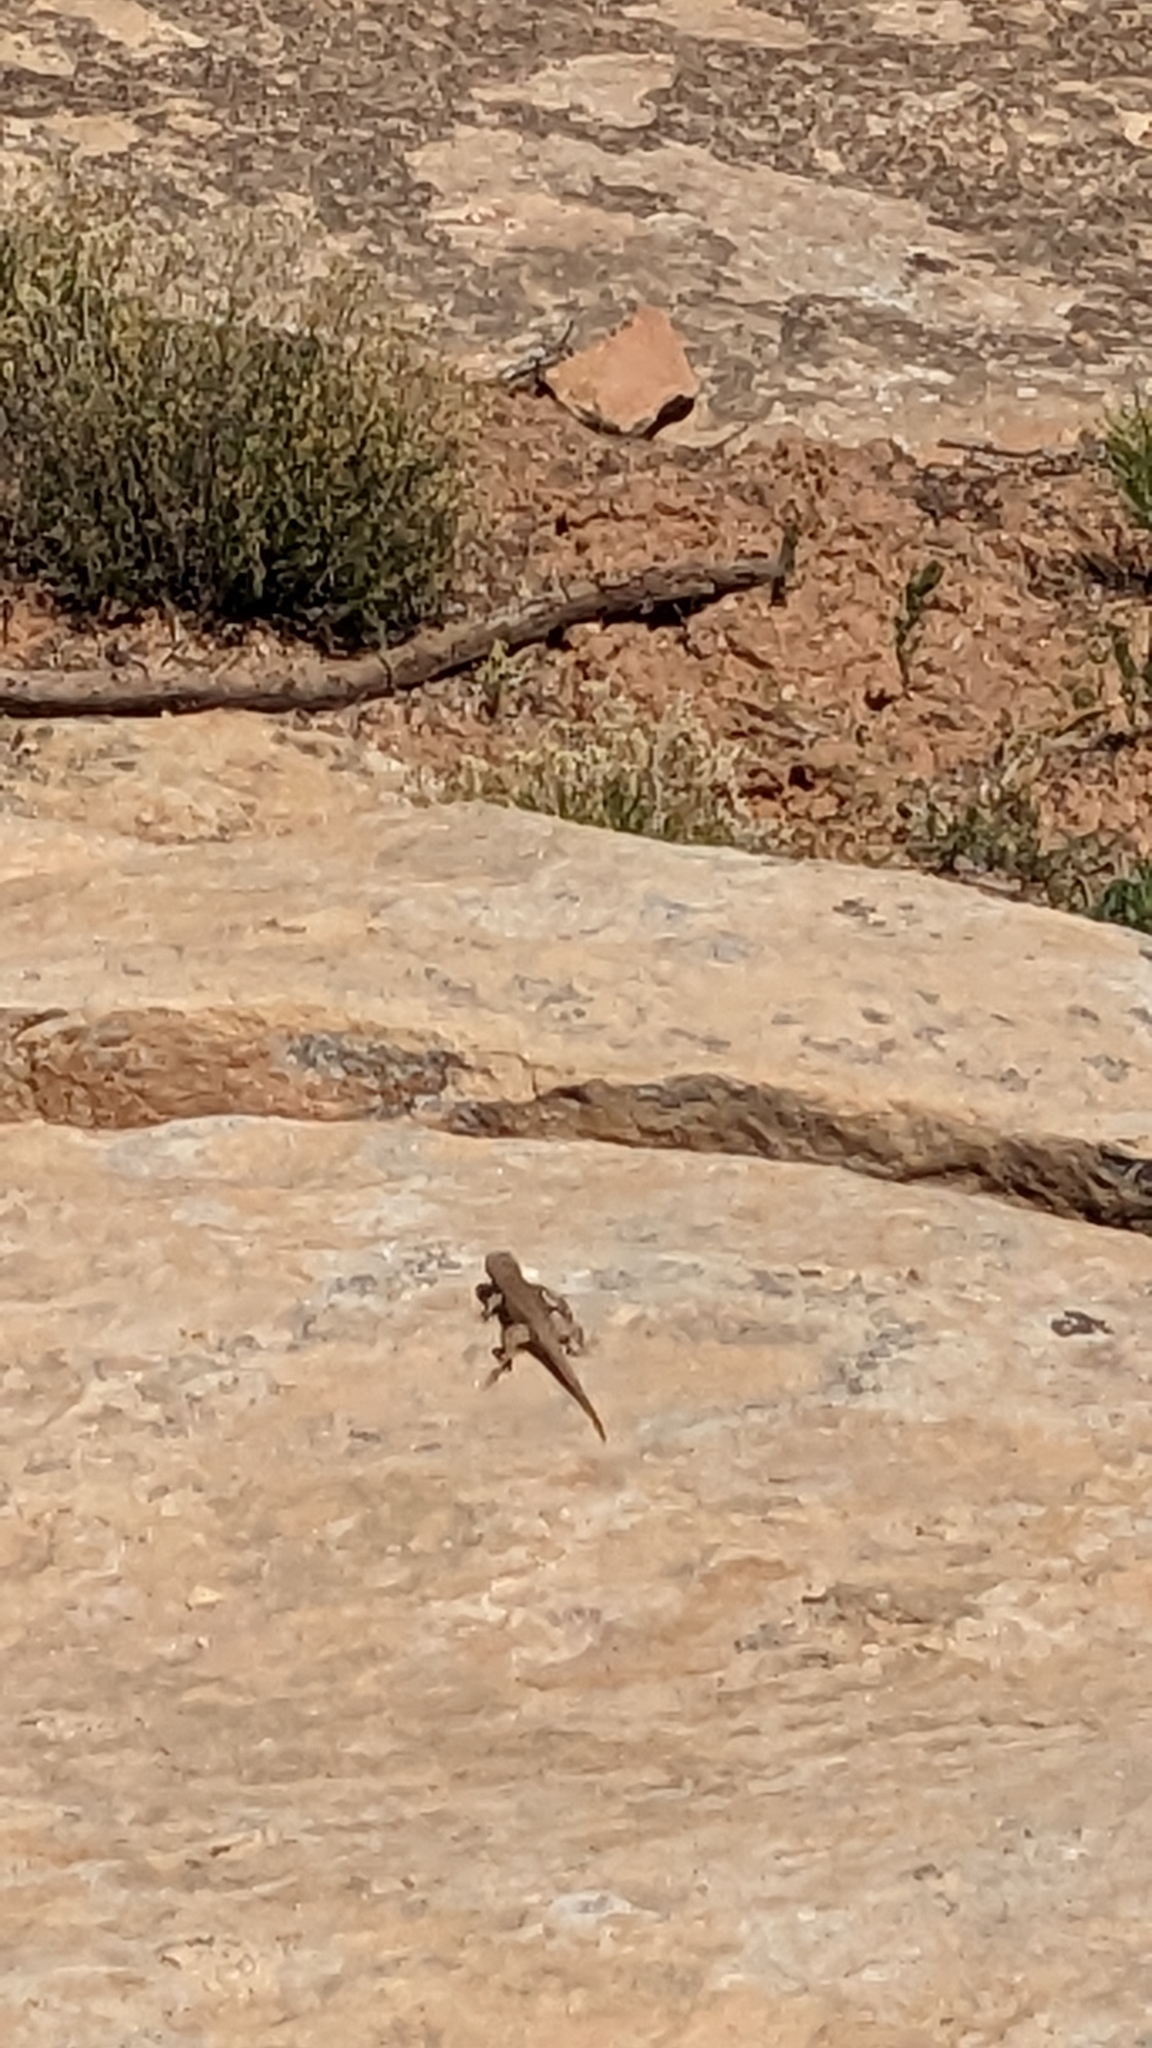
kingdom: Animalia
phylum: Chordata
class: Squamata
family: Phrynosomatidae
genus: Sceloporus
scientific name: Sceloporus tristichus
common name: Plateau fence lizard
